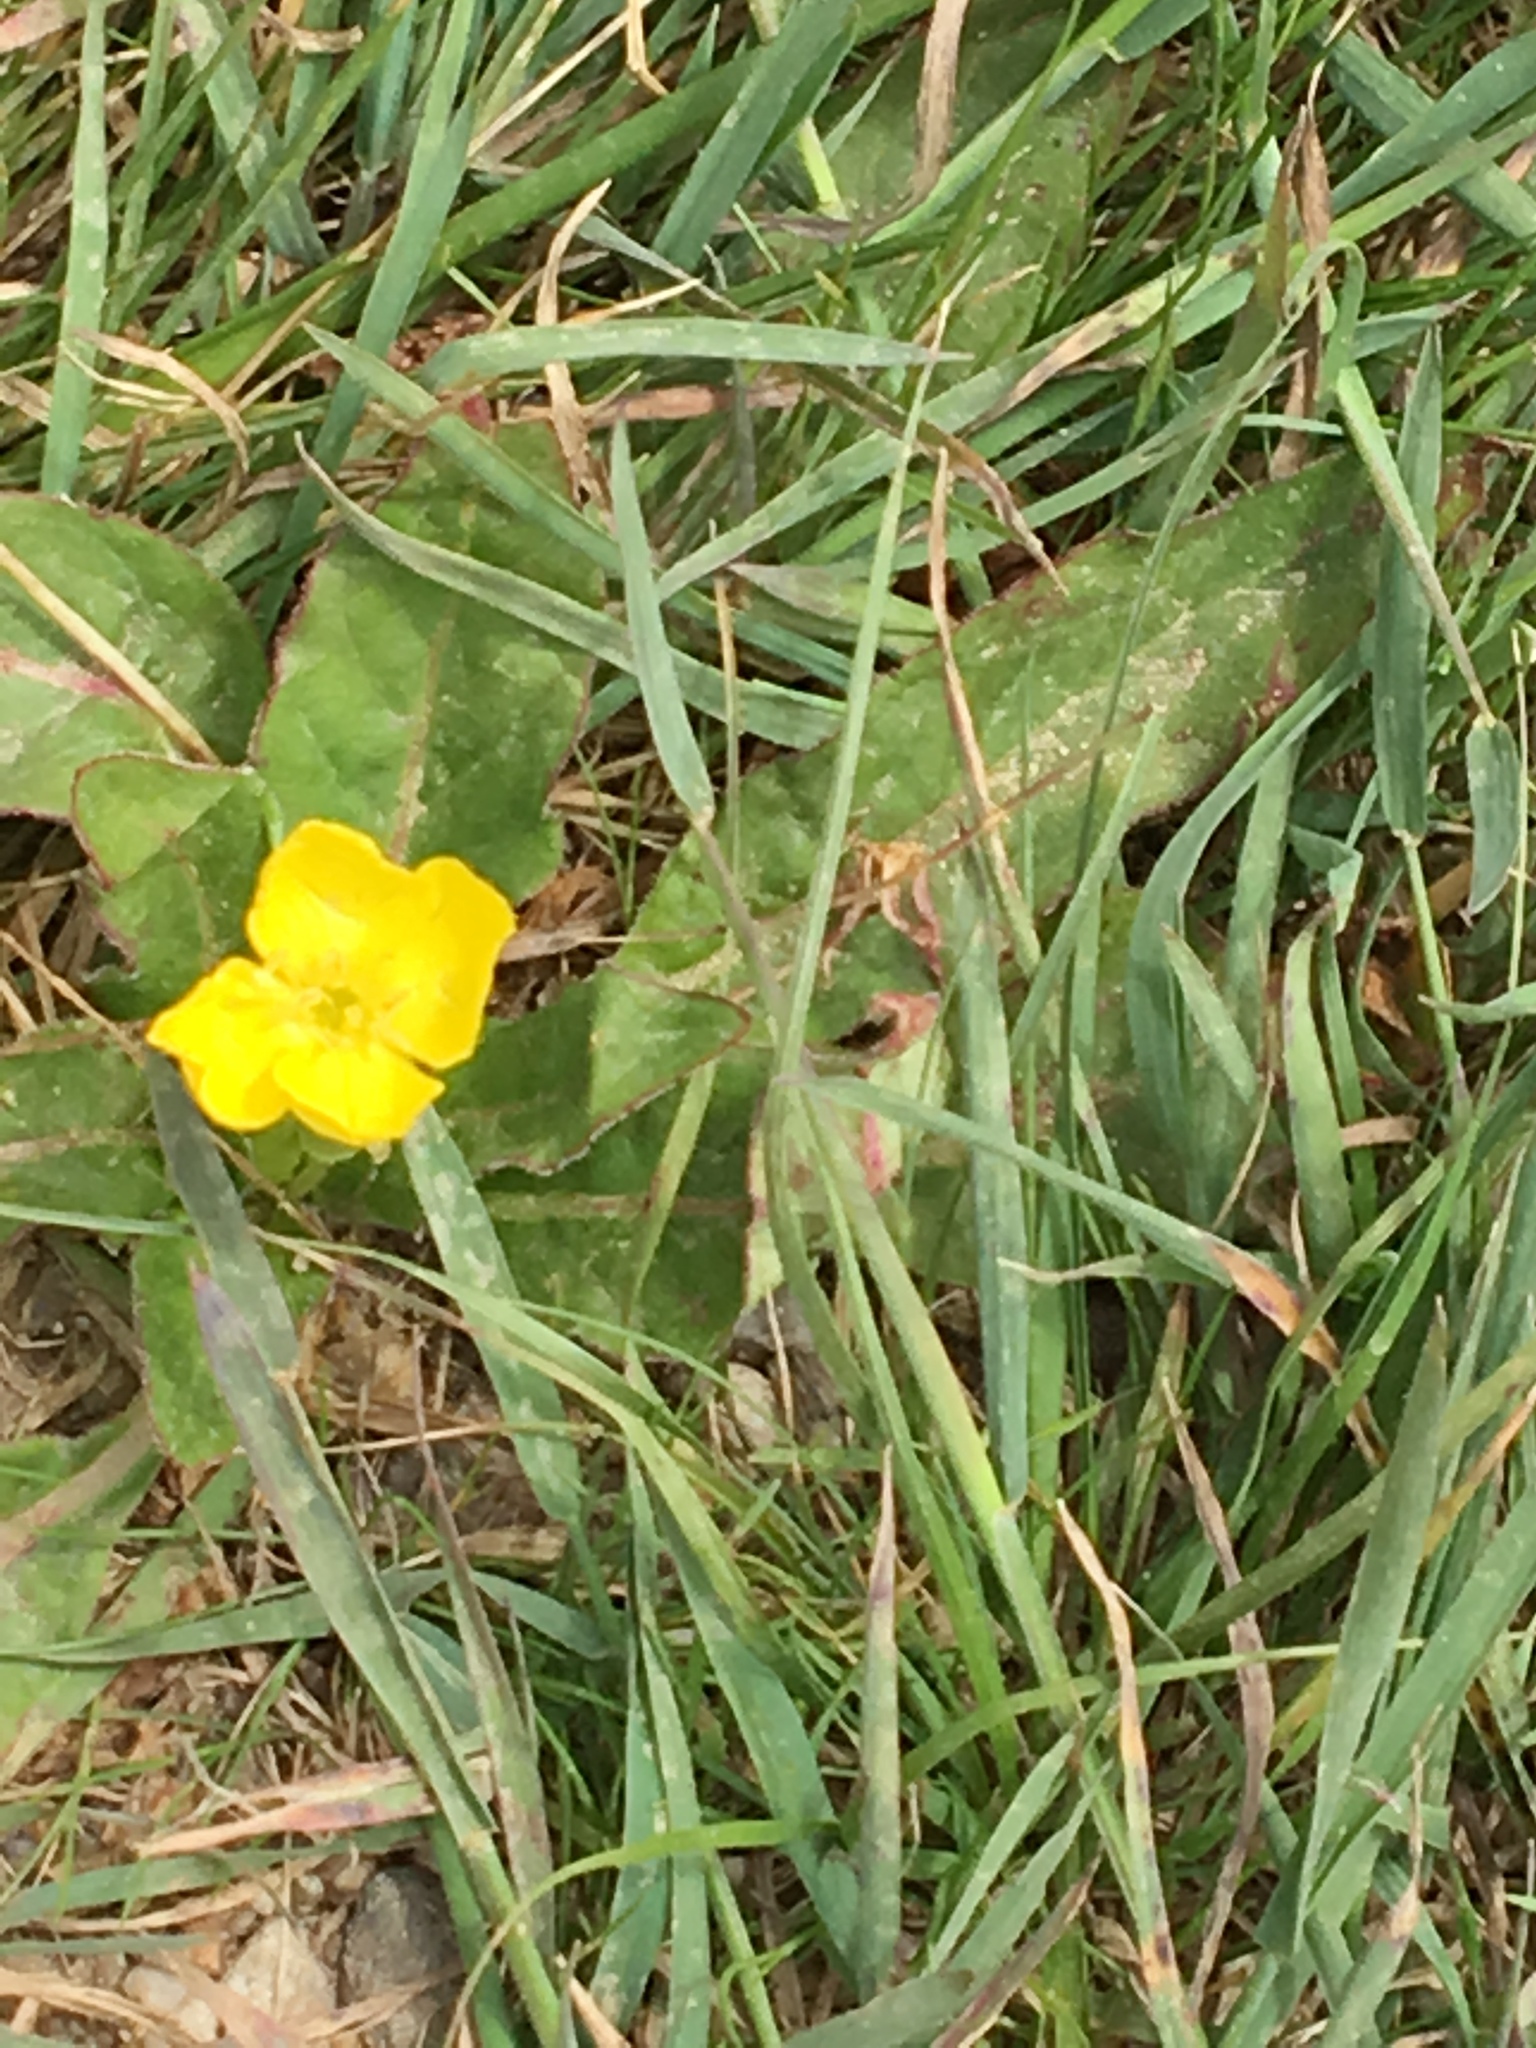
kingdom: Plantae
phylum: Tracheophyta
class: Magnoliopsida
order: Myrtales
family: Onagraceae
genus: Taraxia
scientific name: Taraxia ovata
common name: Goldeneggs
